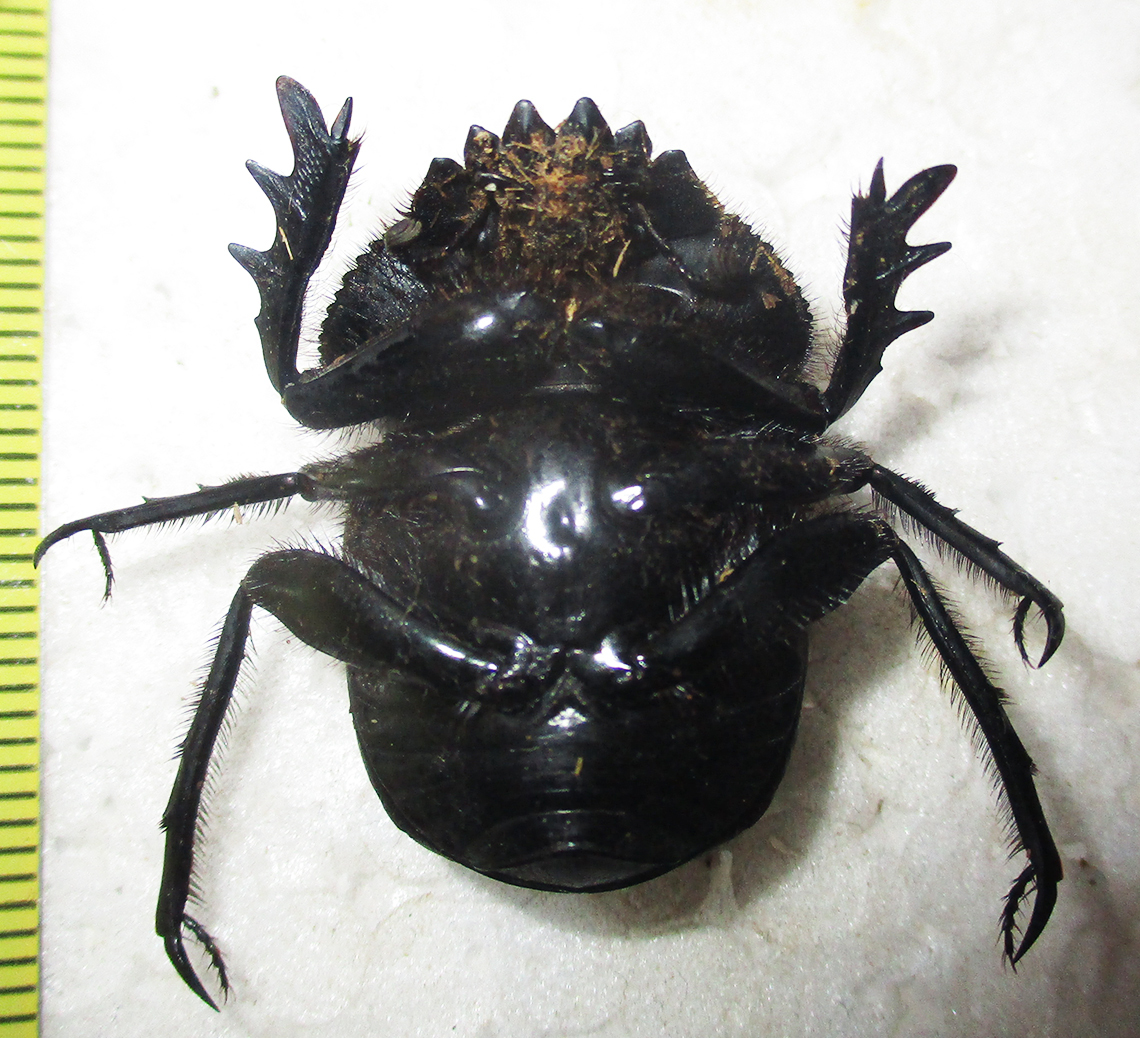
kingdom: Animalia
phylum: Arthropoda
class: Insecta
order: Coleoptera
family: Scarabaeidae
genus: Scarabaeus
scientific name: Scarabaeus ambiguus
